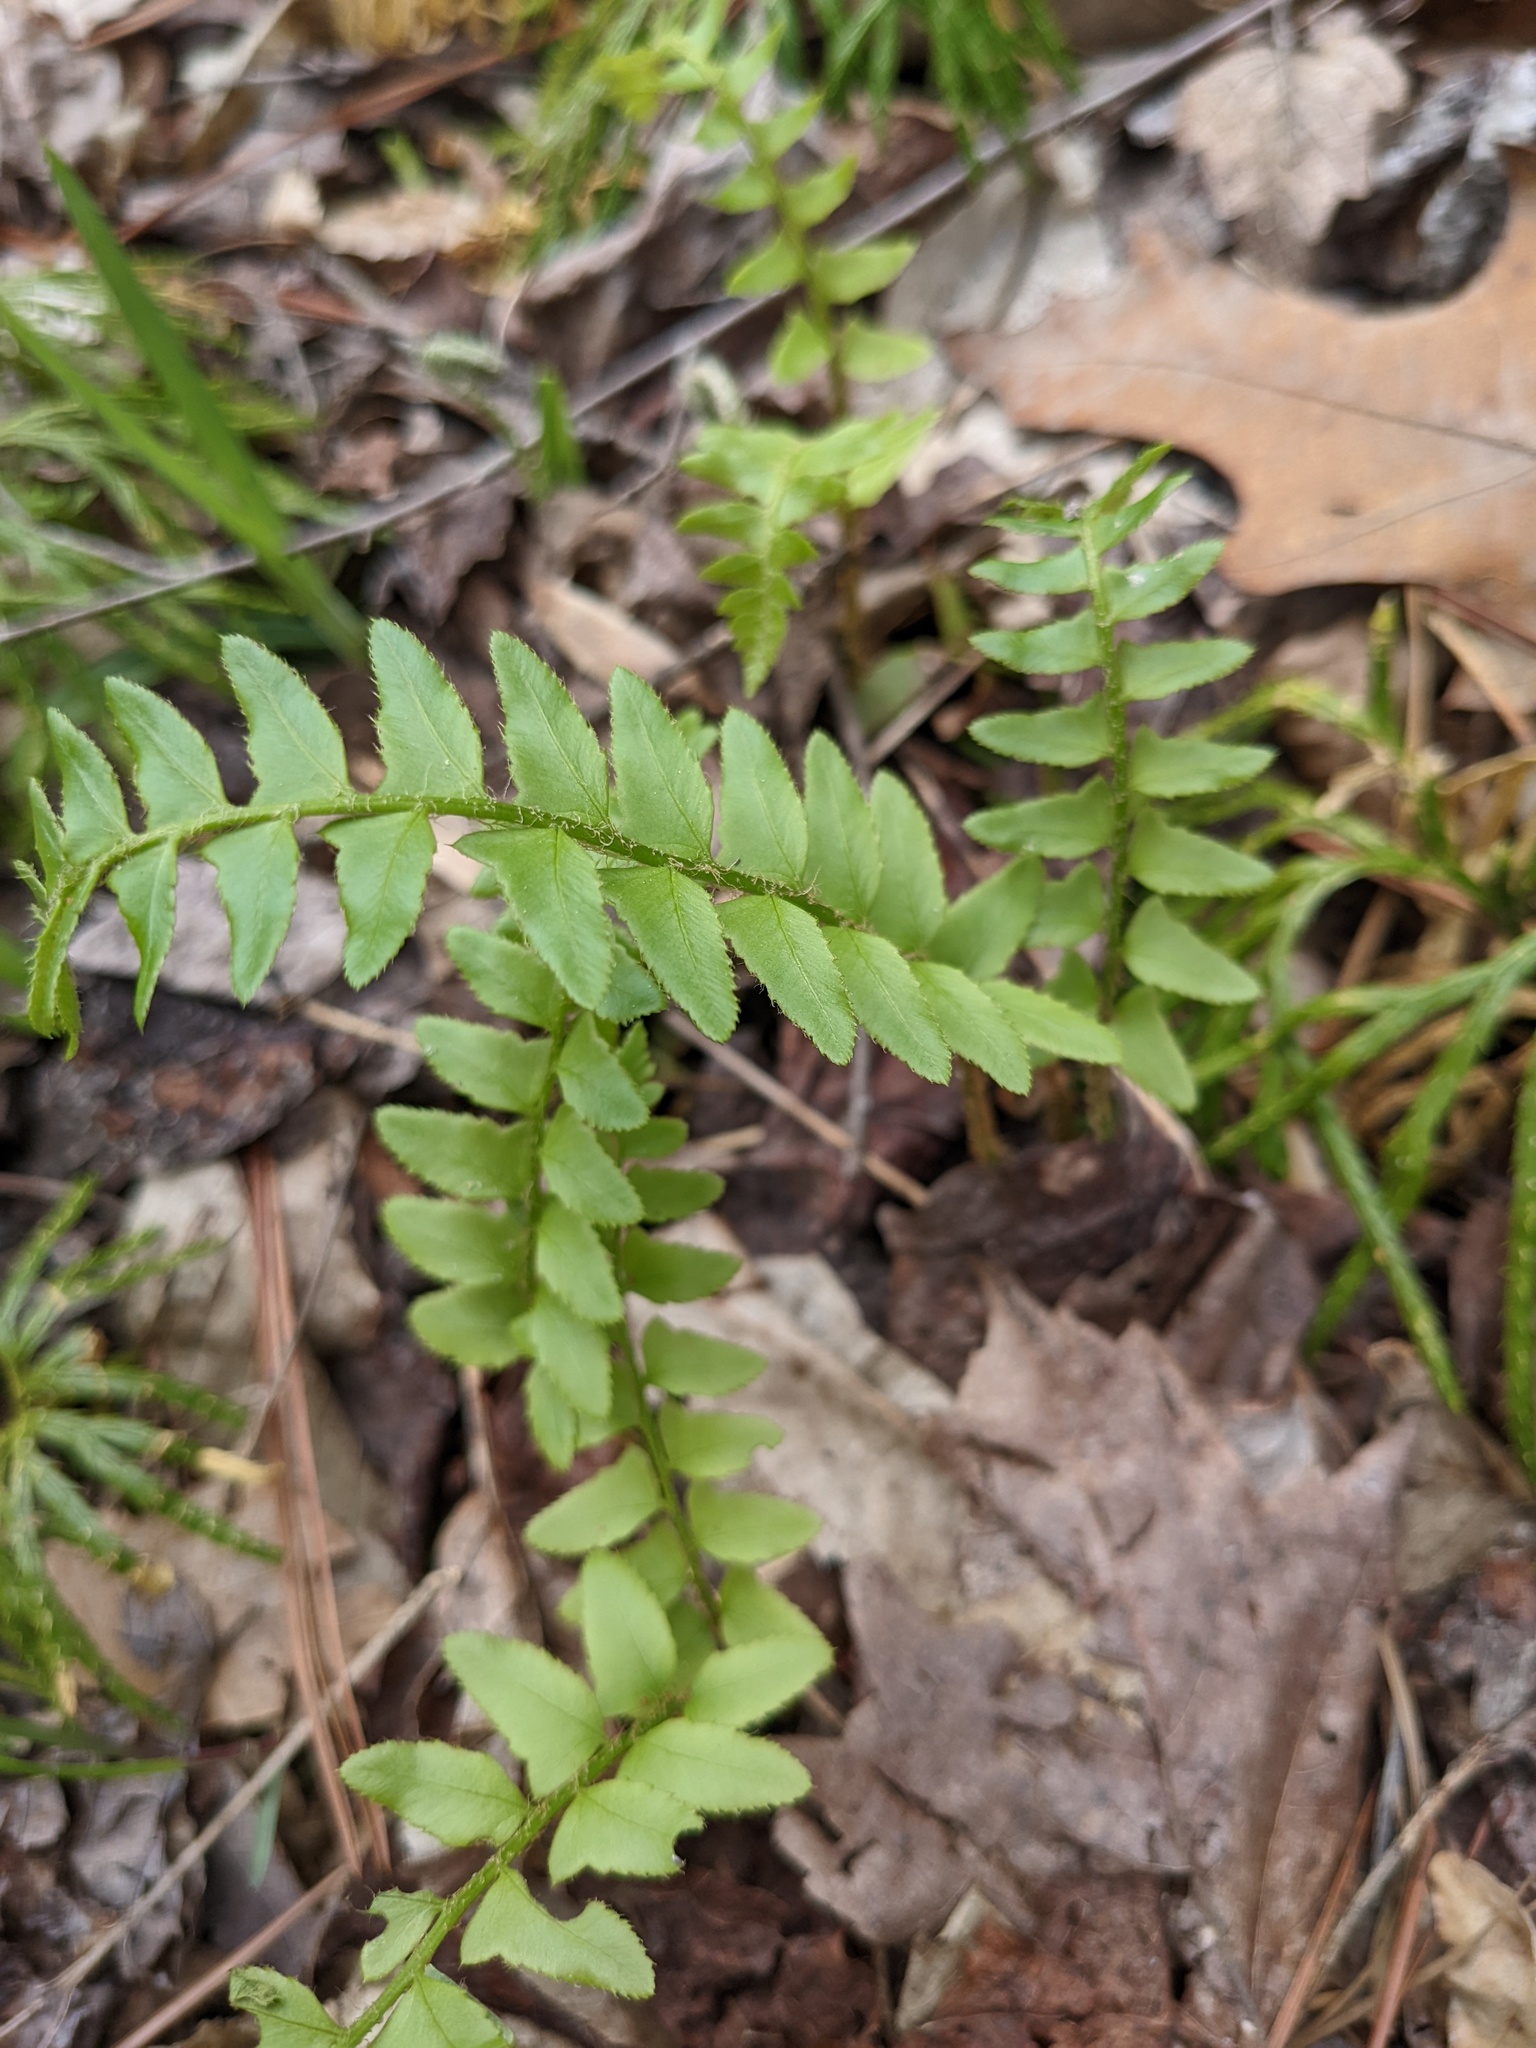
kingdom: Plantae
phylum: Tracheophyta
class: Polypodiopsida
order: Polypodiales
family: Dryopteridaceae
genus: Polystichum
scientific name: Polystichum acrostichoides
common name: Christmas fern
